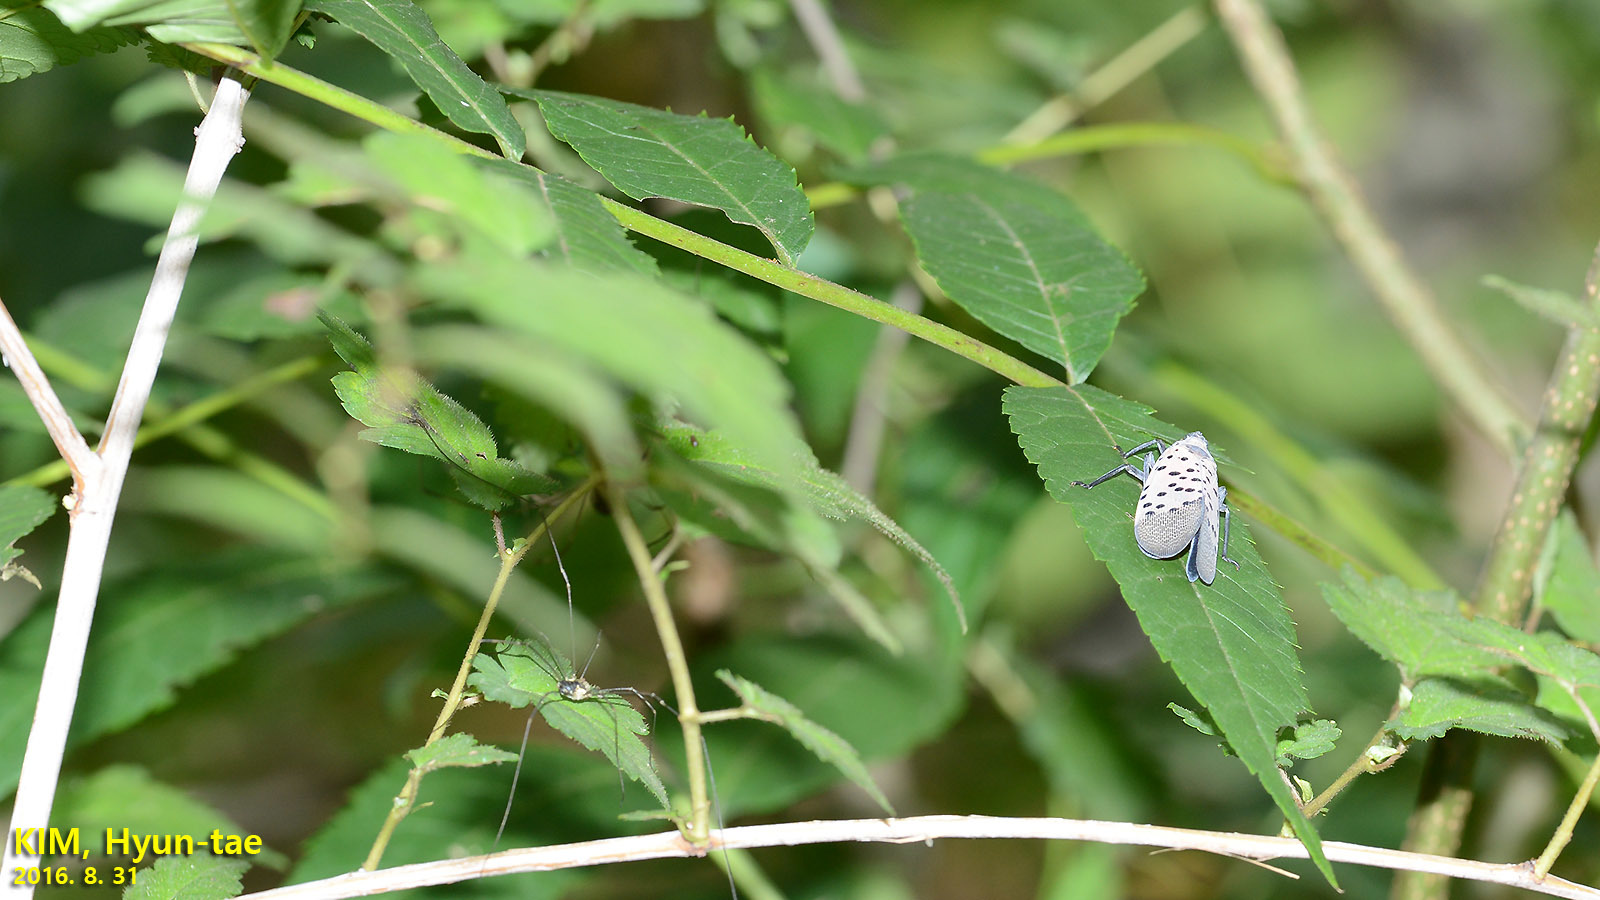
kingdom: Animalia
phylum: Arthropoda
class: Insecta
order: Hemiptera
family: Fulgoridae
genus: Lycorma
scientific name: Lycorma delicatula
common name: Spotted lanternfly
